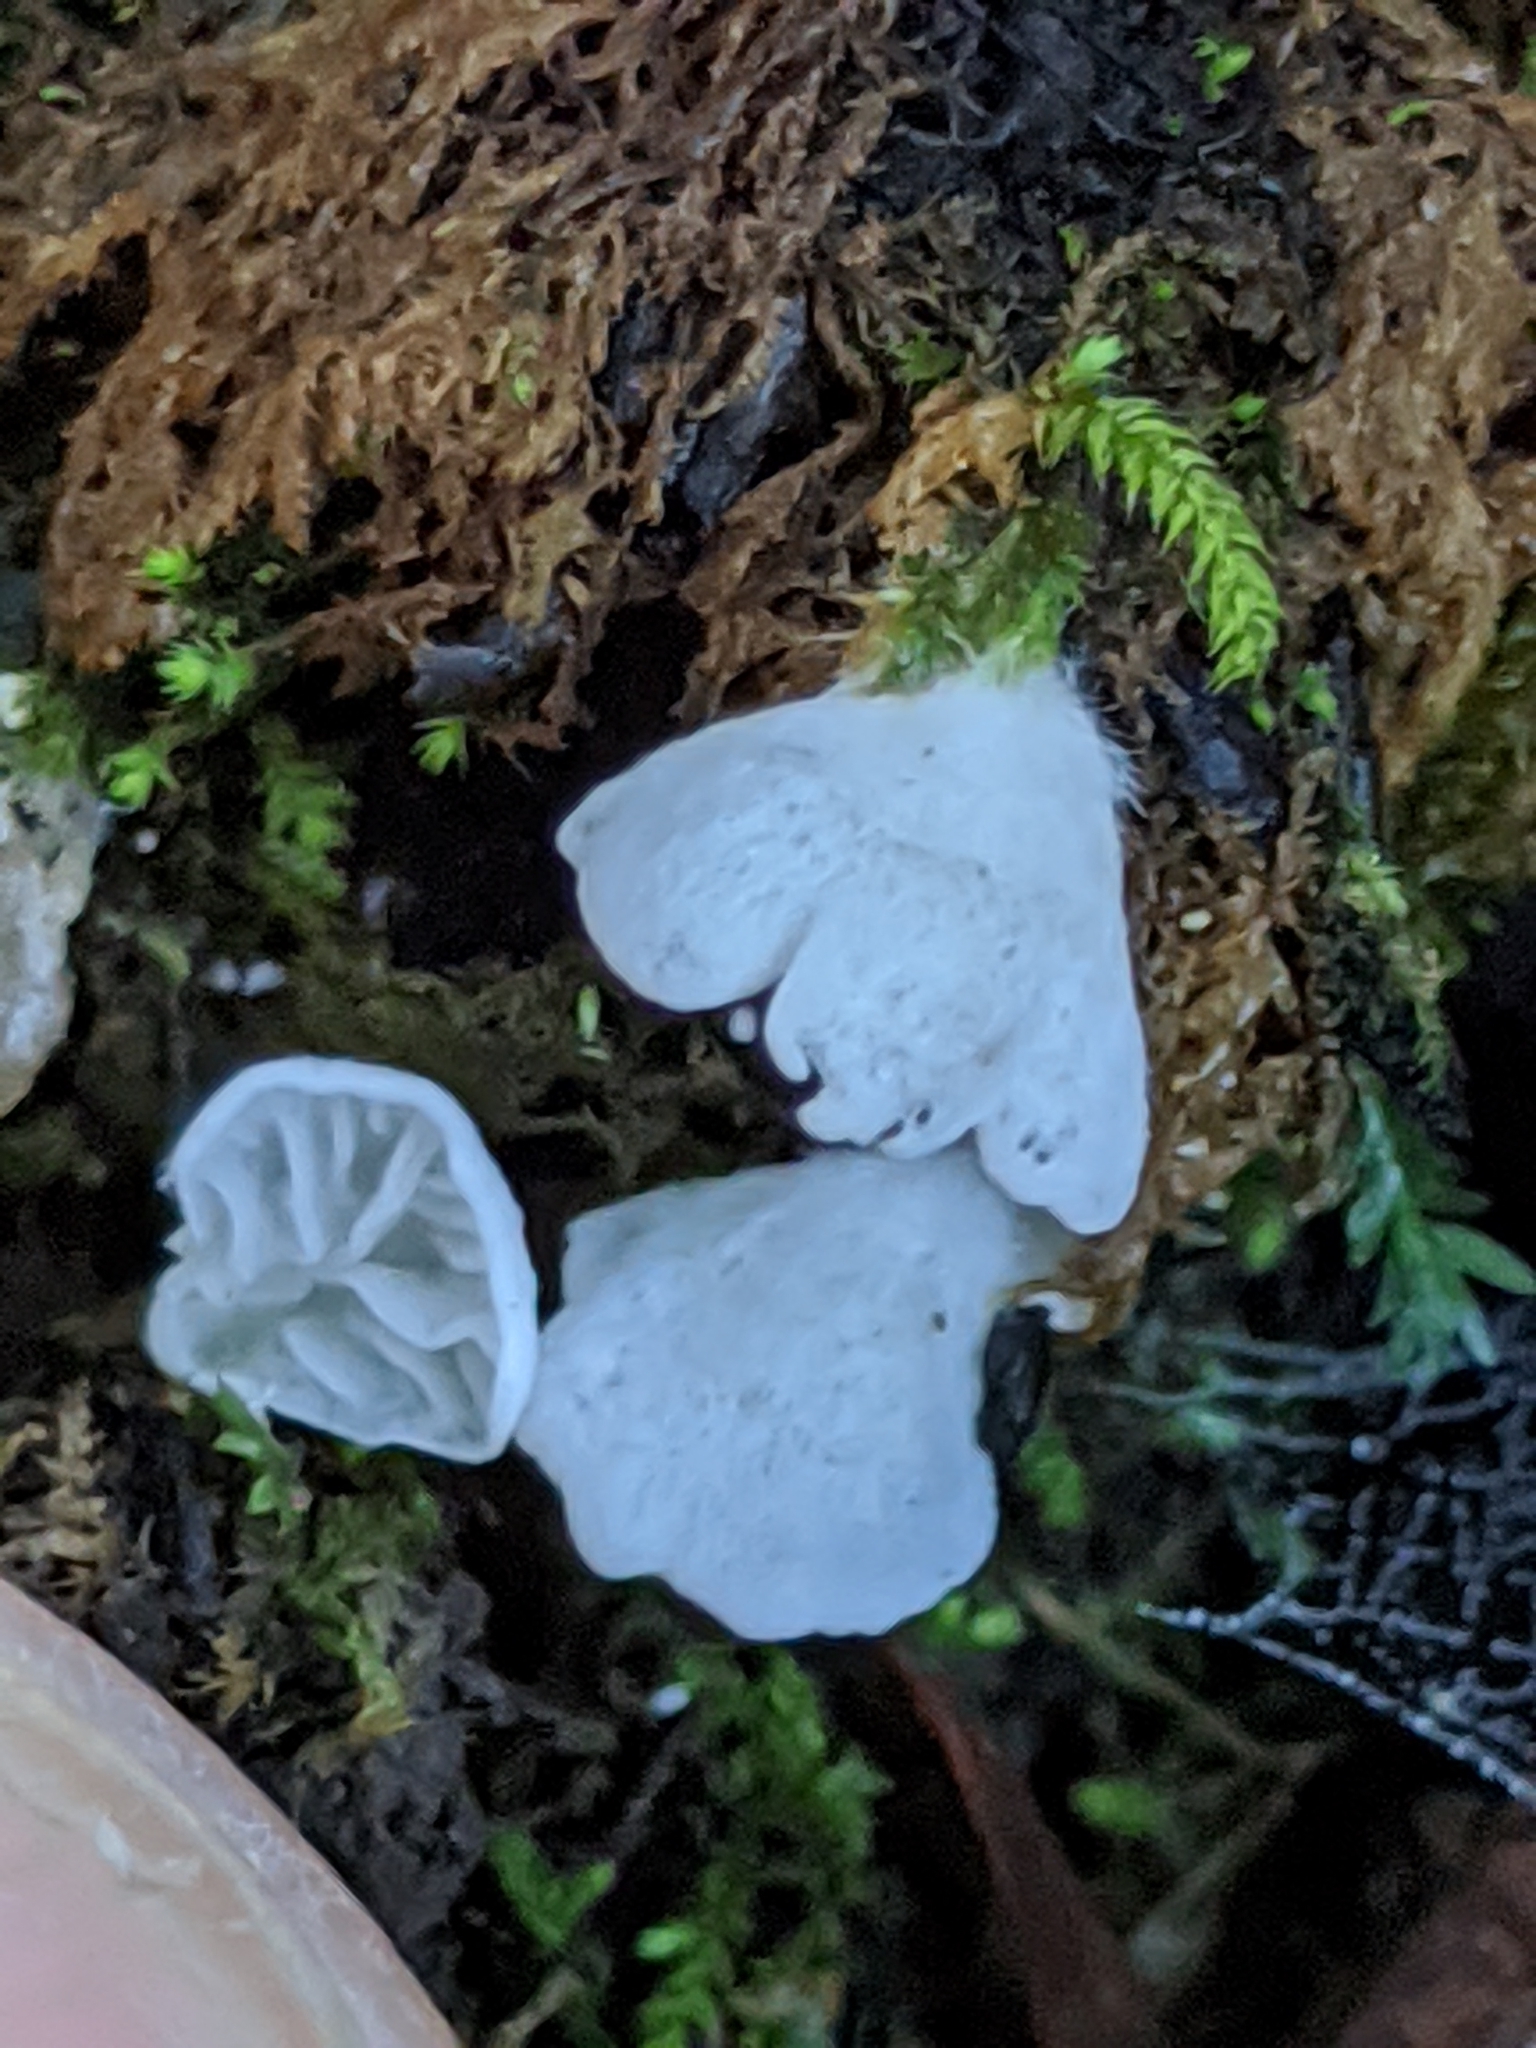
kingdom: Fungi
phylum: Basidiomycota
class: Agaricomycetes
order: Agaricales
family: Tricholomataceae
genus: Rimbachia
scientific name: Rimbachia bryophila
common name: Veined mossear
